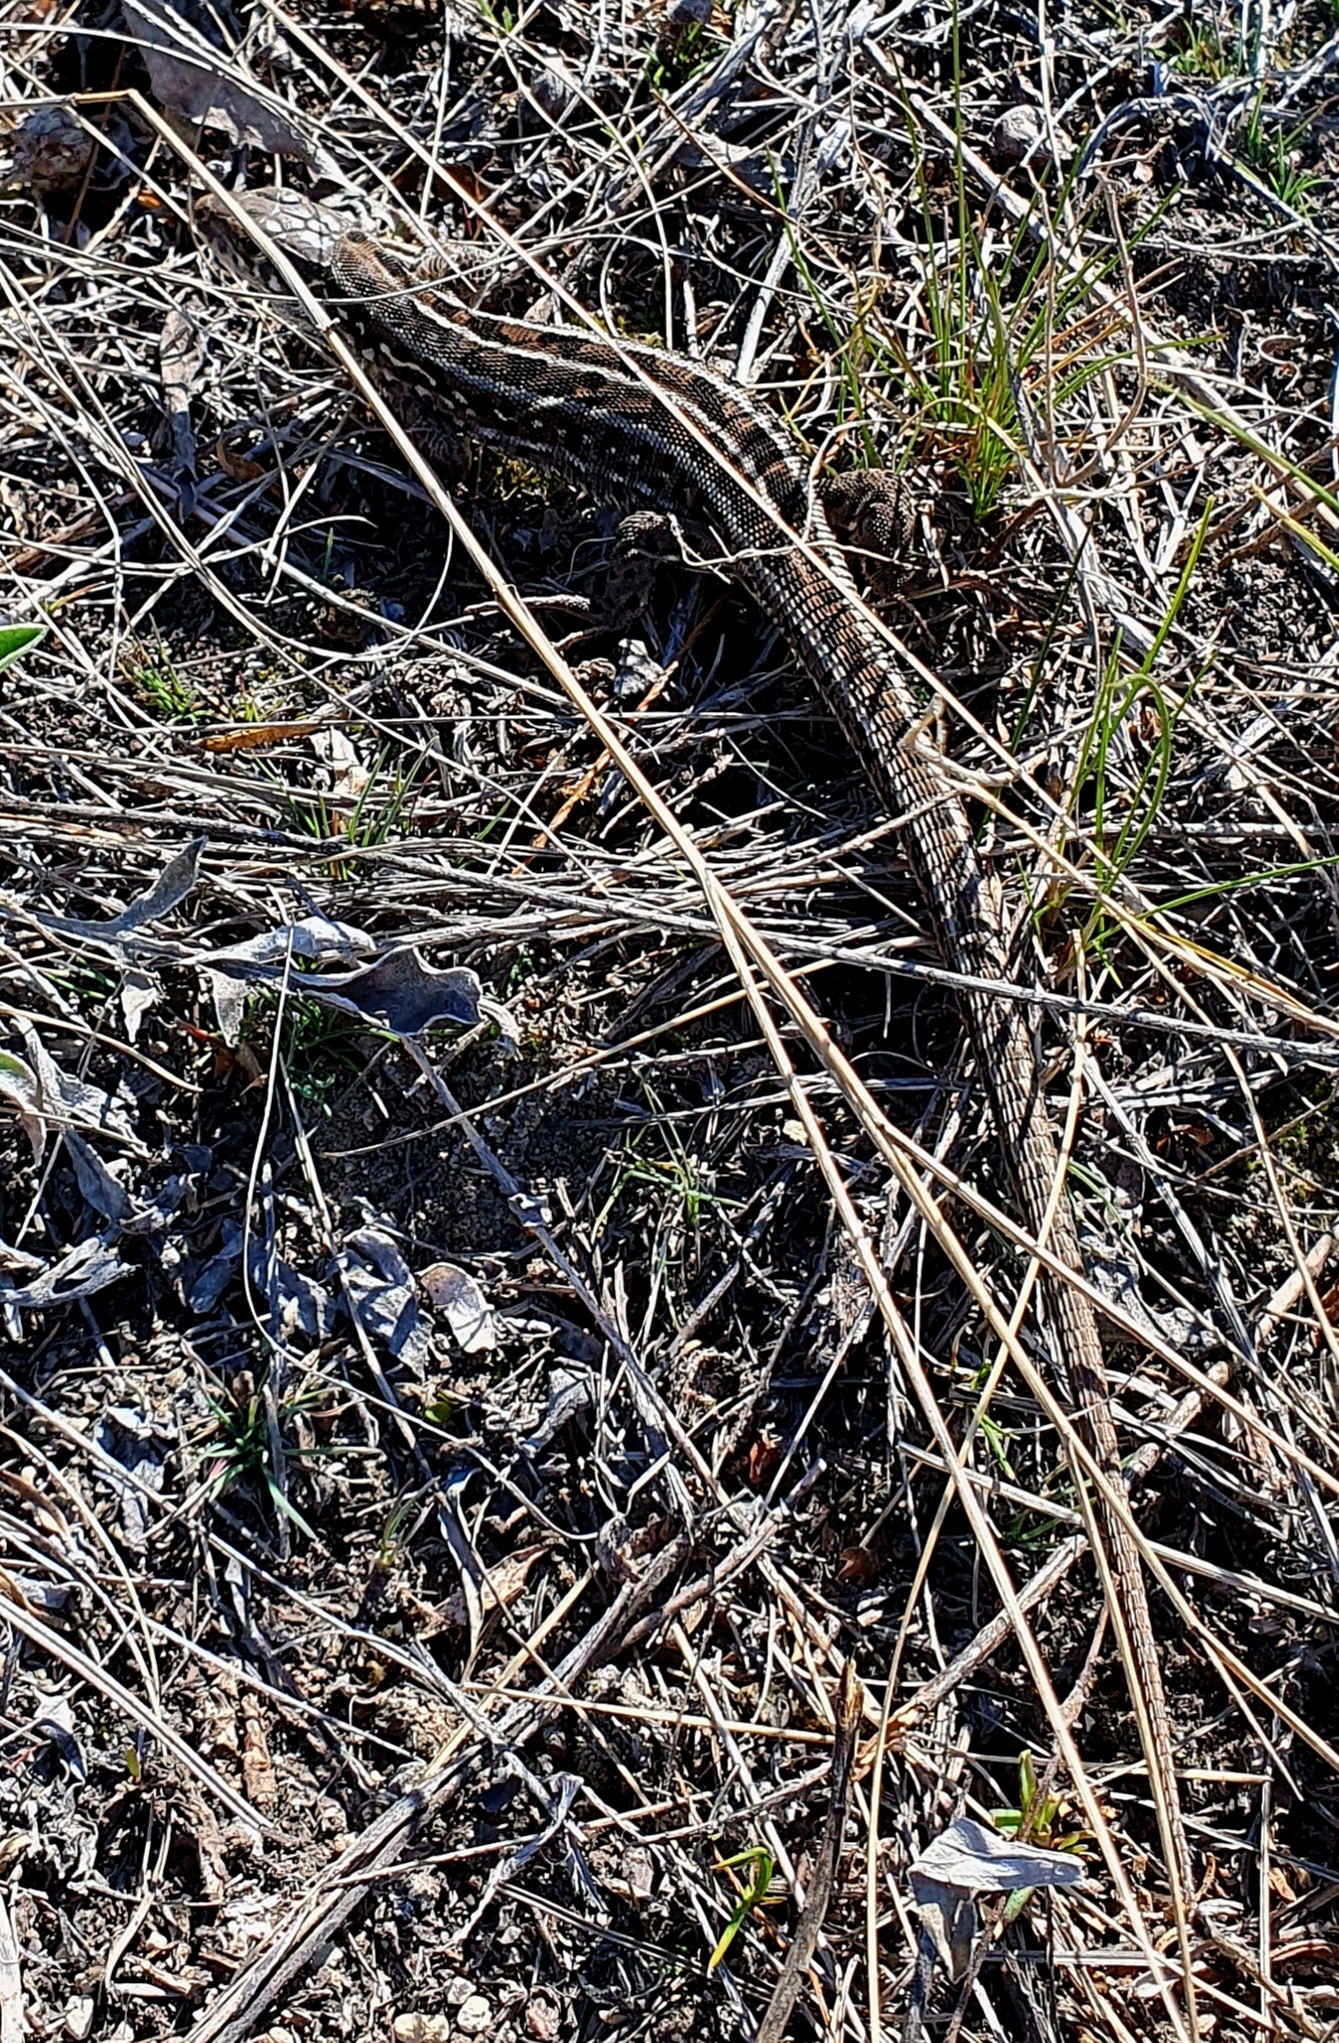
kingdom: Animalia
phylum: Chordata
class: Squamata
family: Lacertidae
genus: Lacerta
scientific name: Lacerta agilis
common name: Sand lizard
